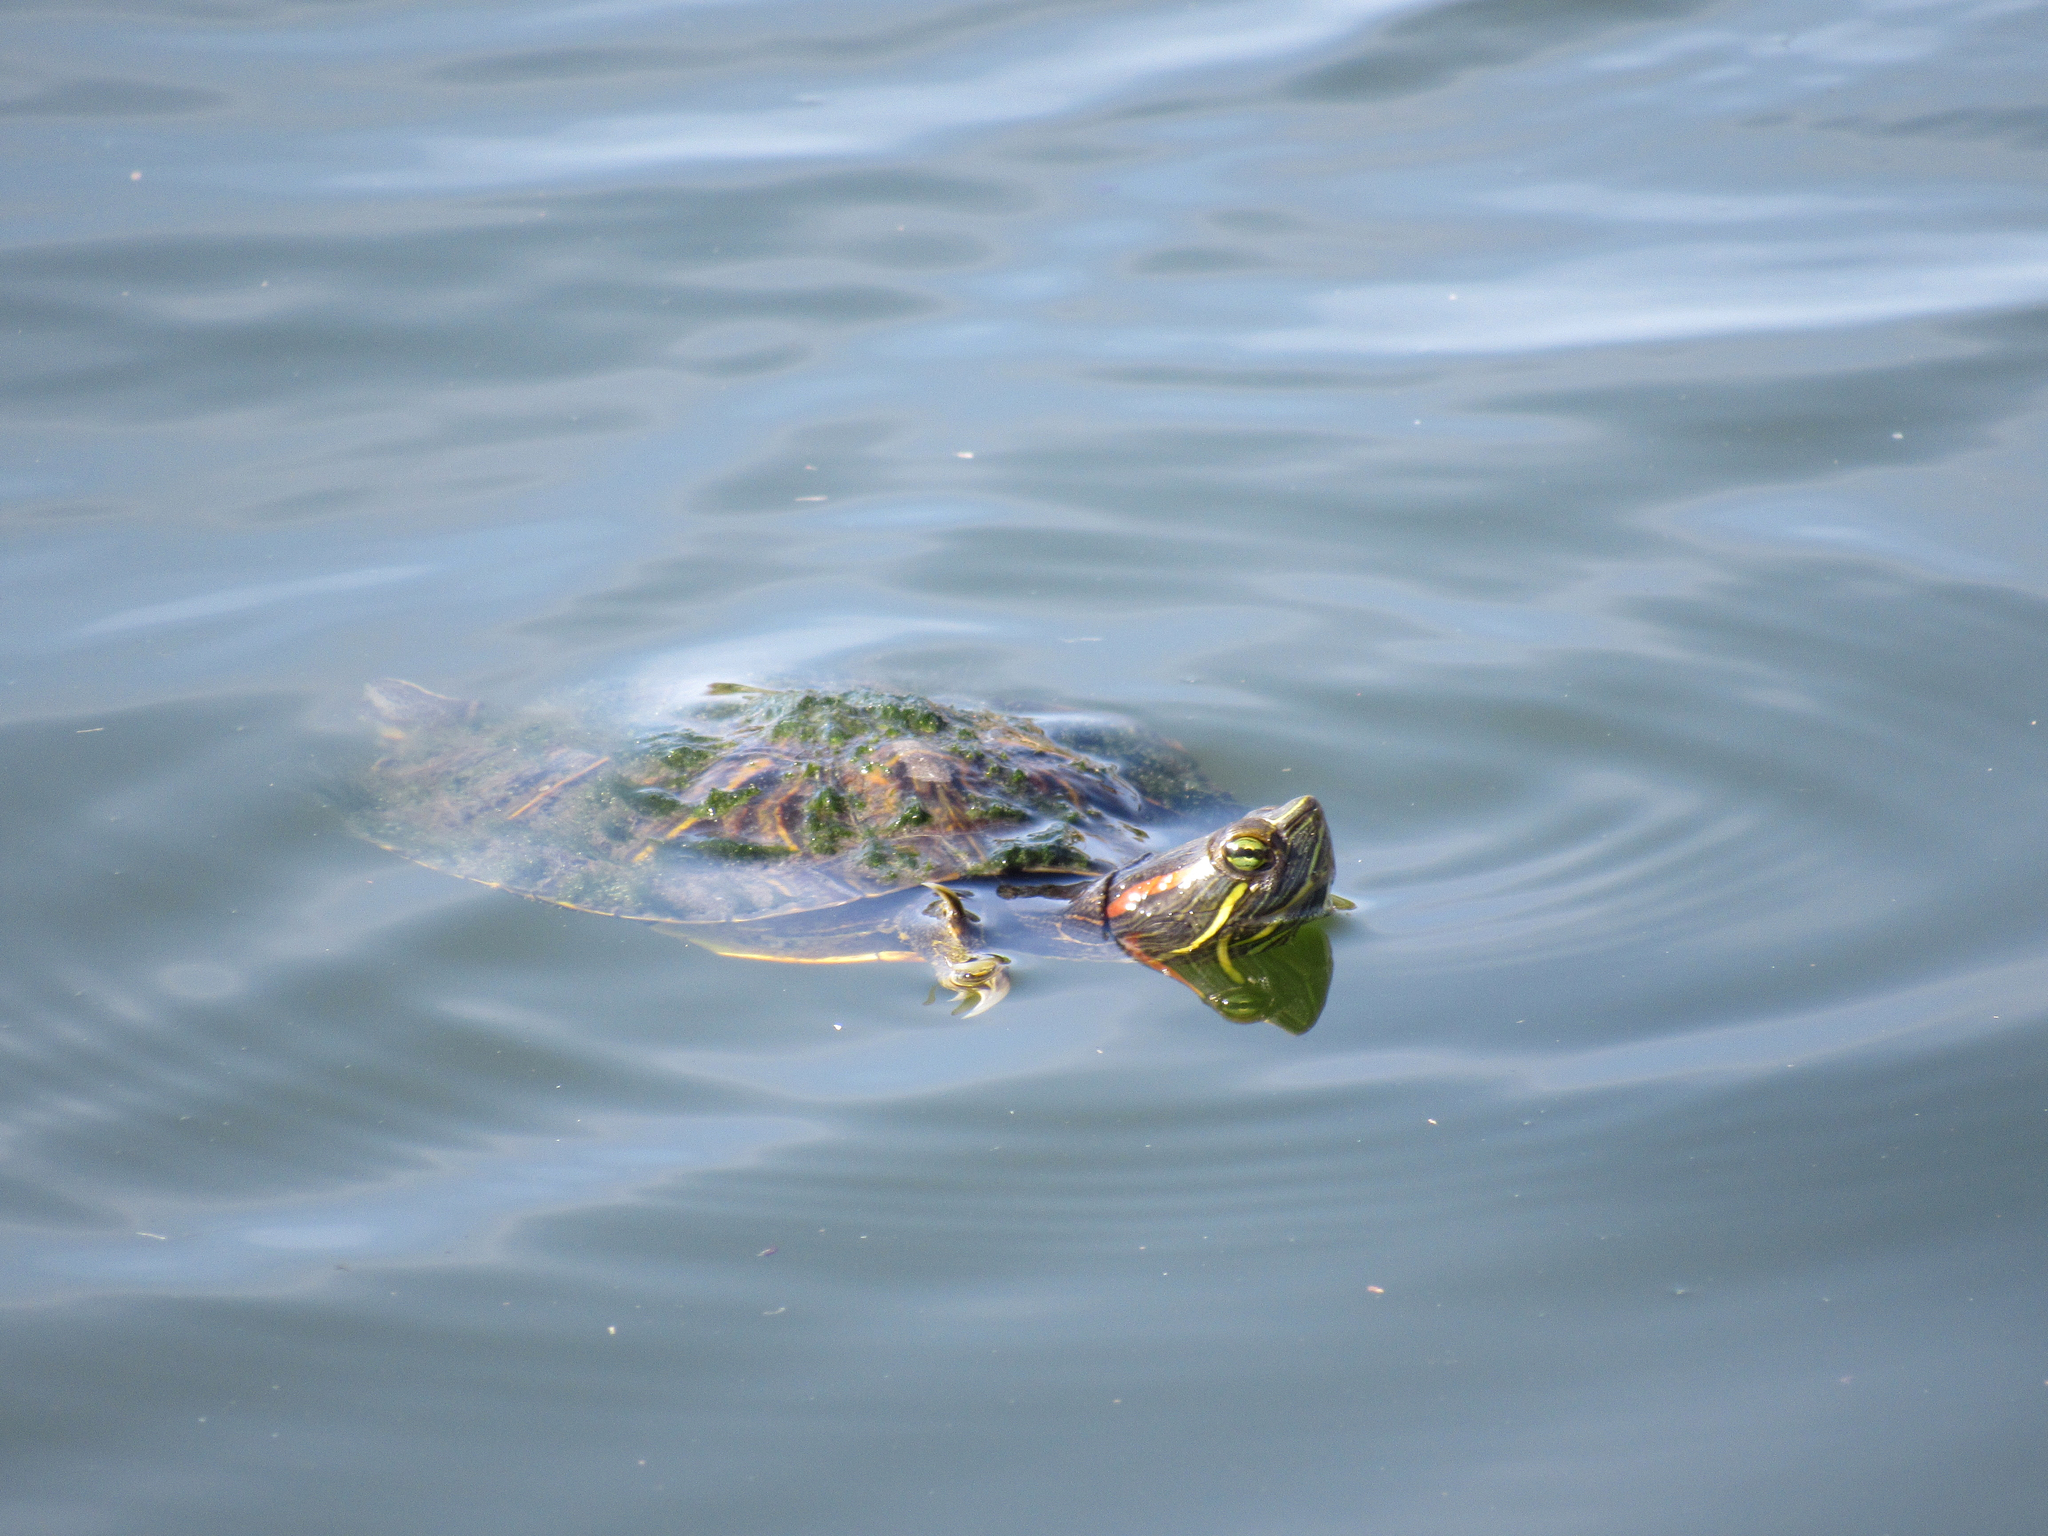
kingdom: Animalia
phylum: Chordata
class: Testudines
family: Emydidae
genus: Trachemys
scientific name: Trachemys scripta
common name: Slider
